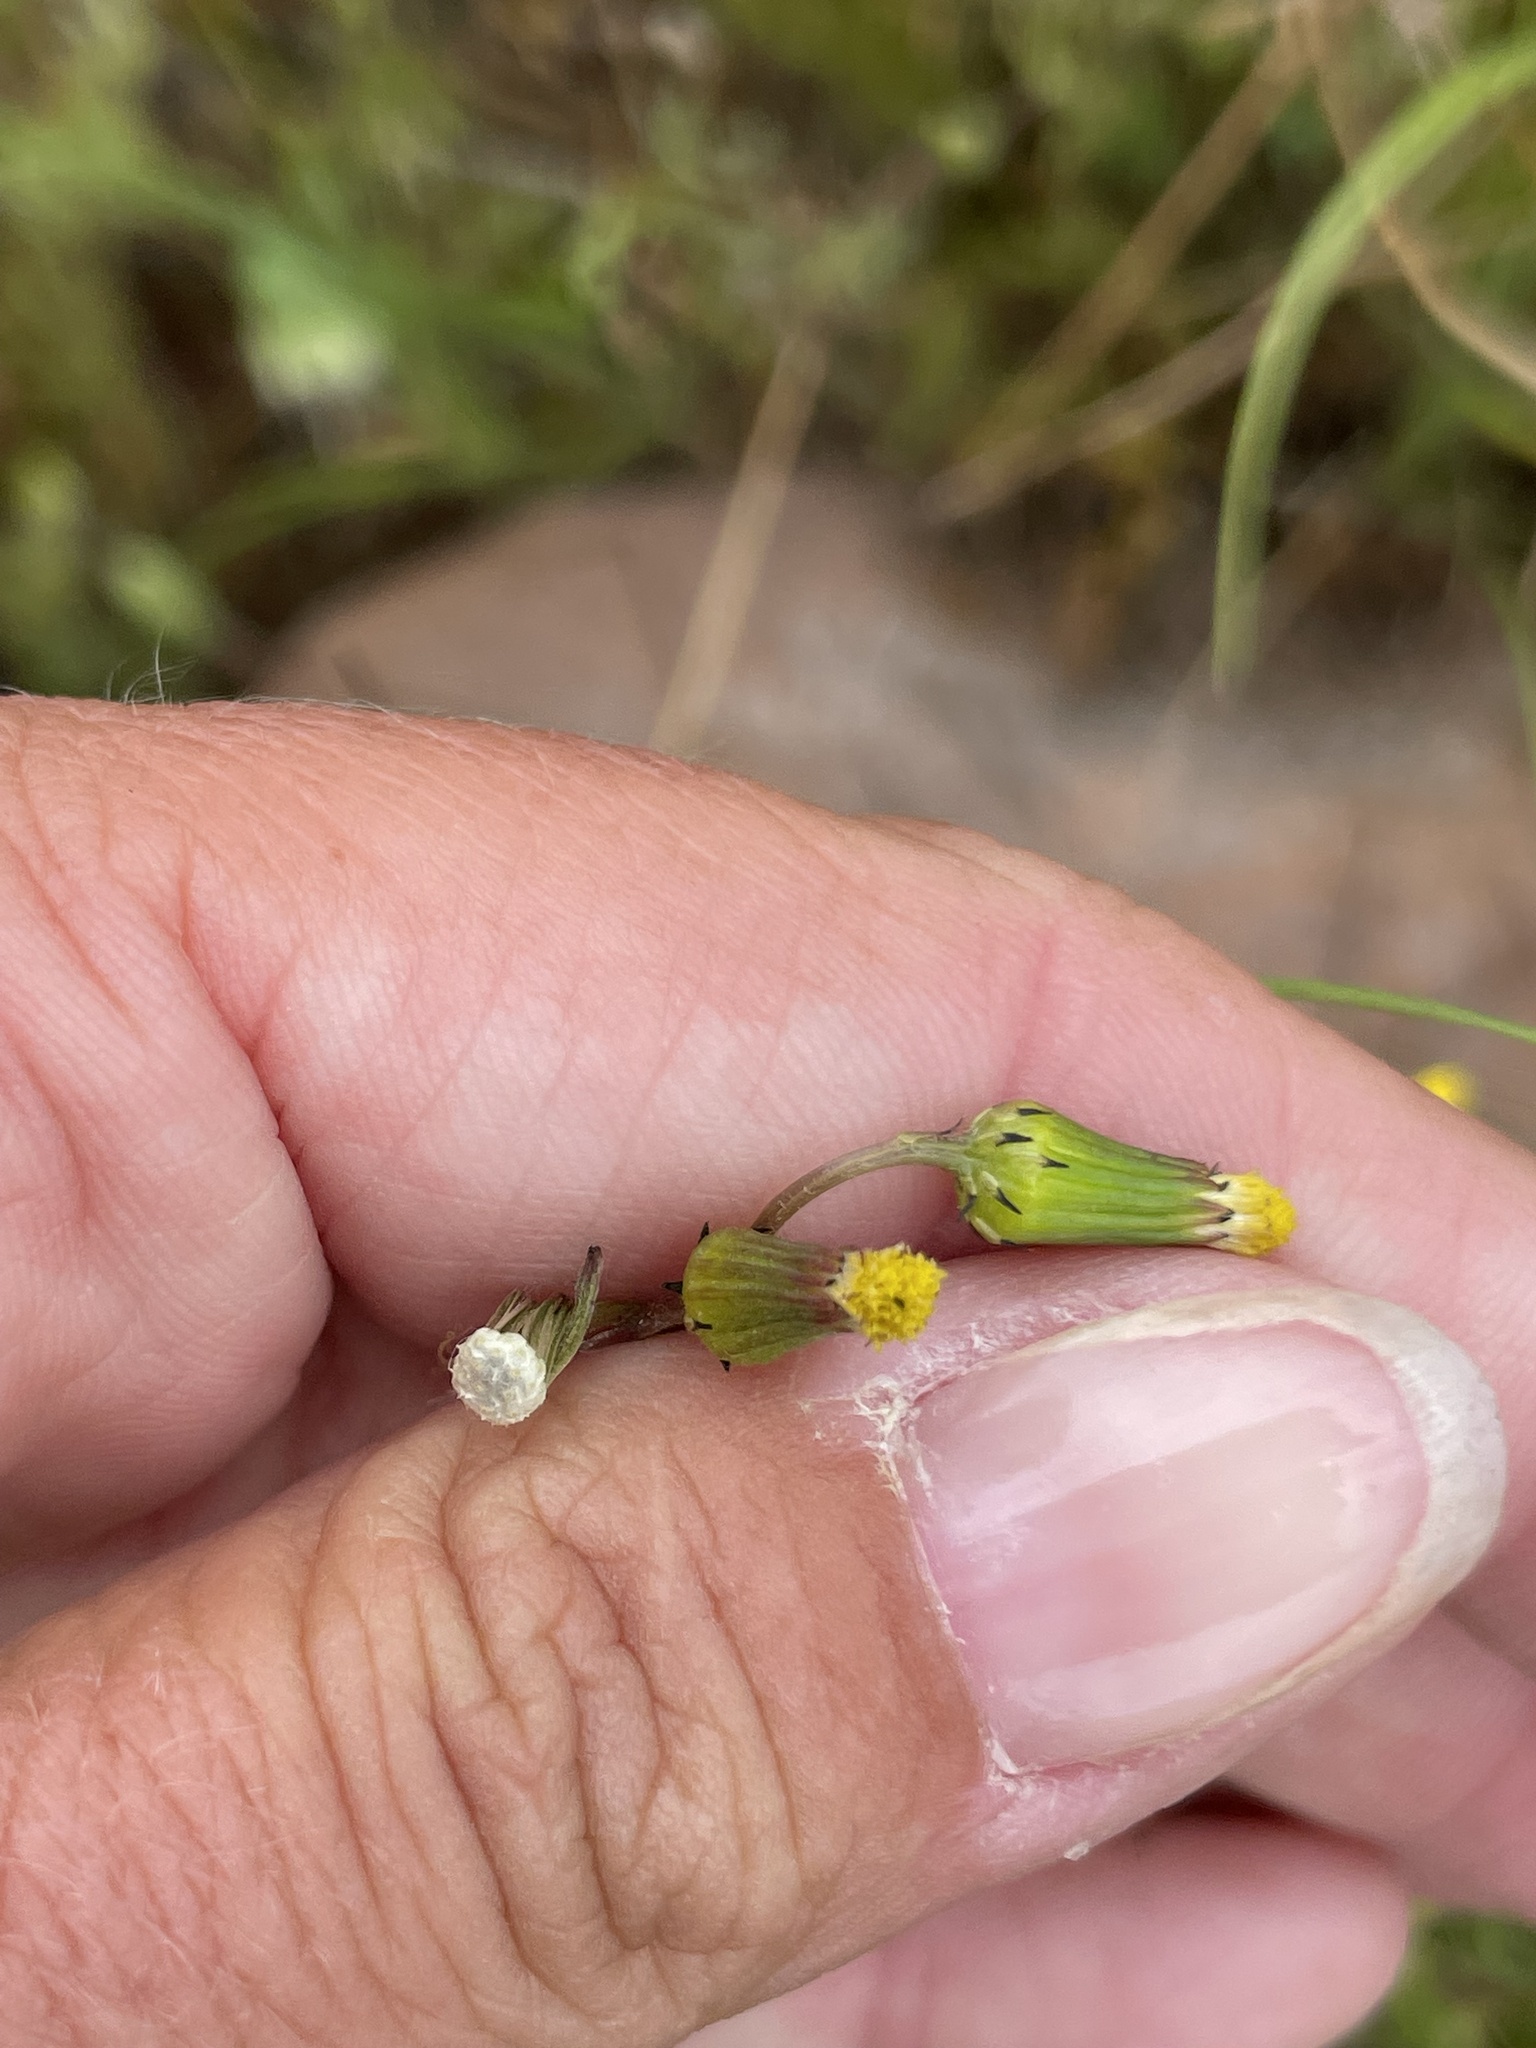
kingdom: Plantae
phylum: Tracheophyta
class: Magnoliopsida
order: Asterales
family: Asteraceae
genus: Senecio
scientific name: Senecio vulgaris
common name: Old-man-in-the-spring
